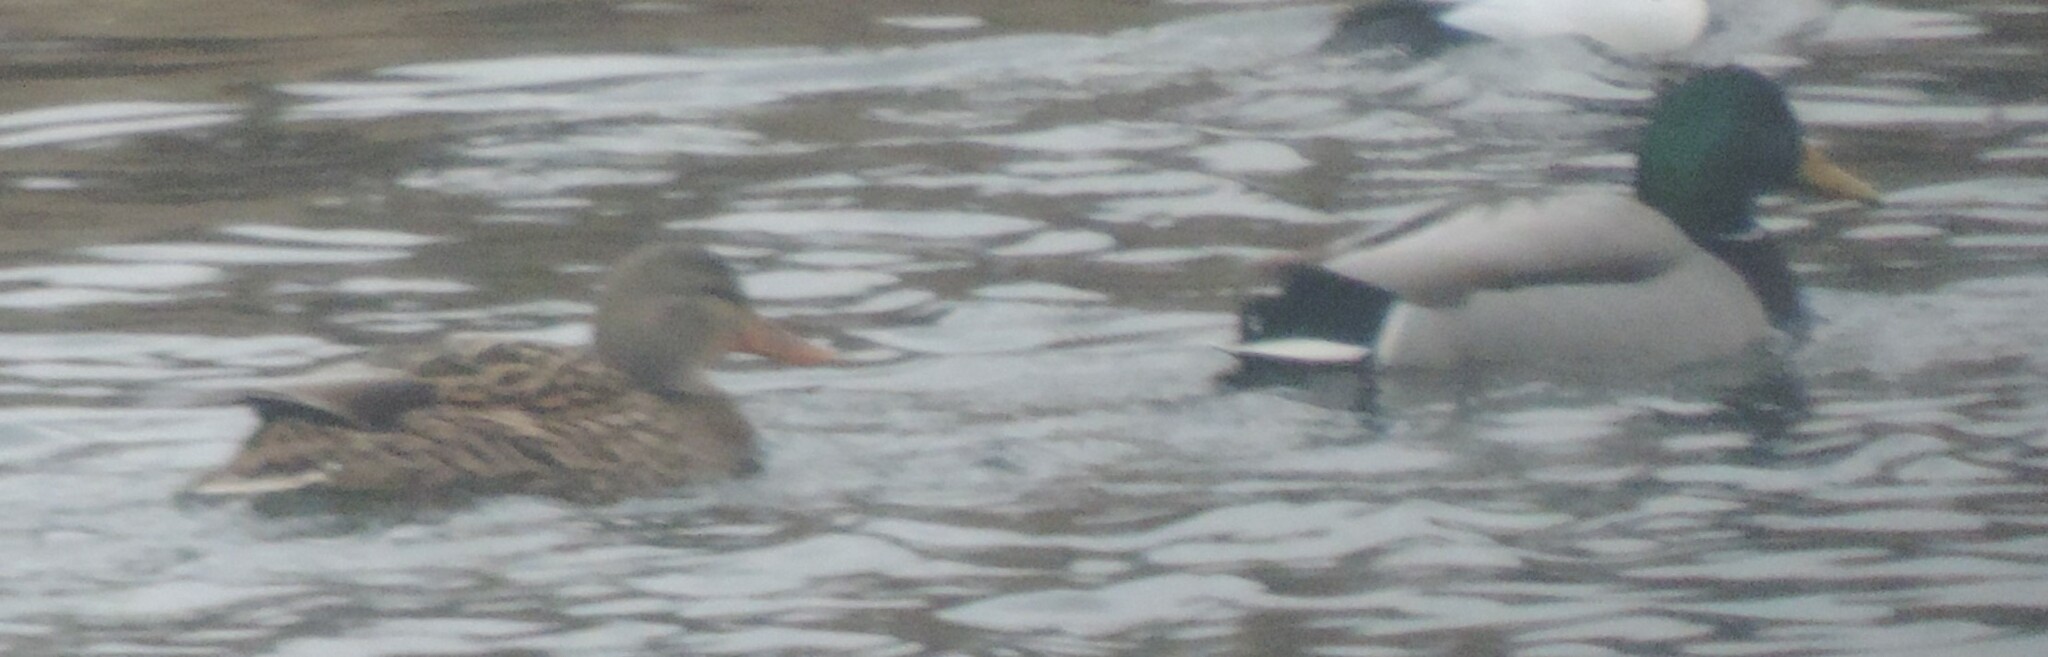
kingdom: Animalia
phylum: Chordata
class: Aves
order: Anseriformes
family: Anatidae
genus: Anas
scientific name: Anas platyrhynchos
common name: Mallard
